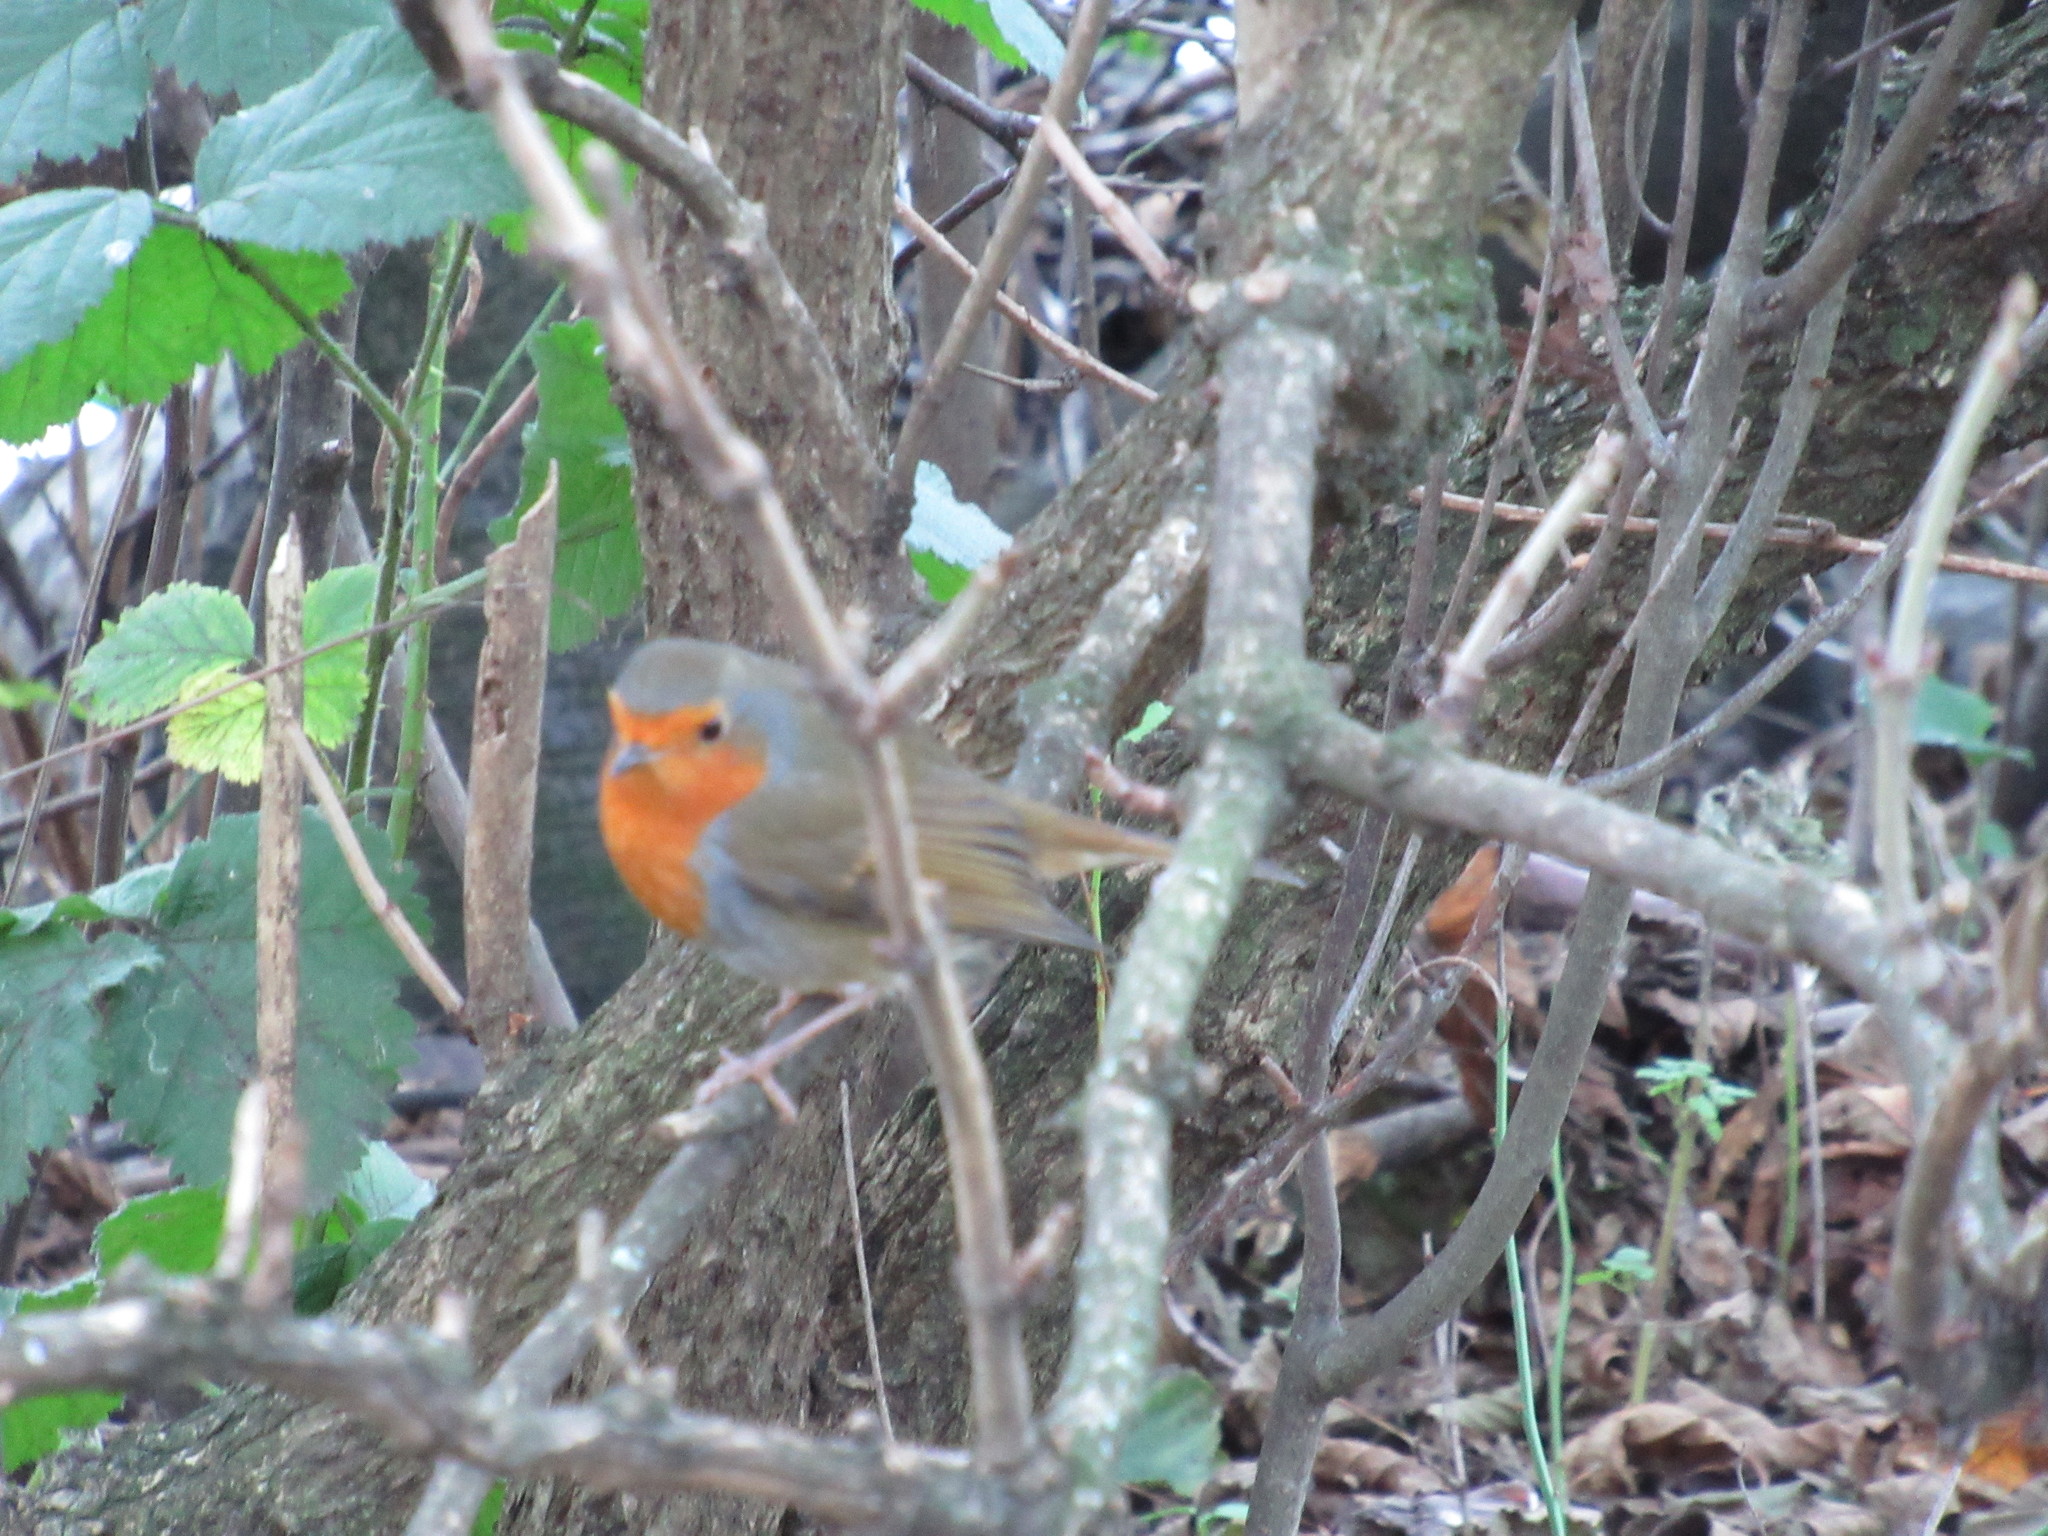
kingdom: Animalia
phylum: Chordata
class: Aves
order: Passeriformes
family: Muscicapidae
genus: Erithacus
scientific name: Erithacus rubecula
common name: European robin
